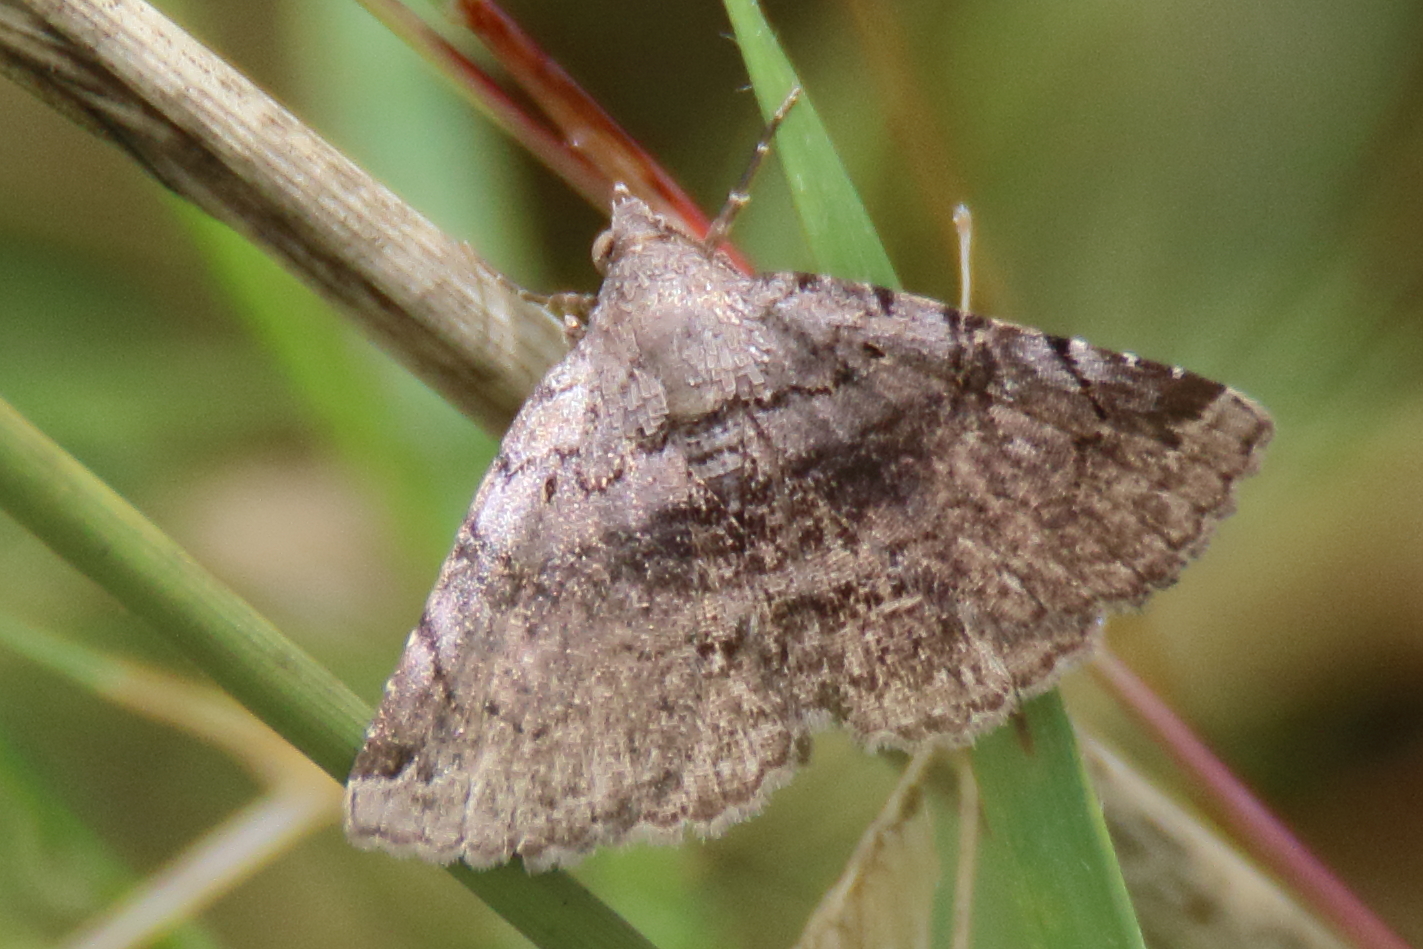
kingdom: Animalia
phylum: Arthropoda
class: Insecta
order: Lepidoptera
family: Erebidae
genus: Toxonprucha
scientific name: Toxonprucha crudelis
